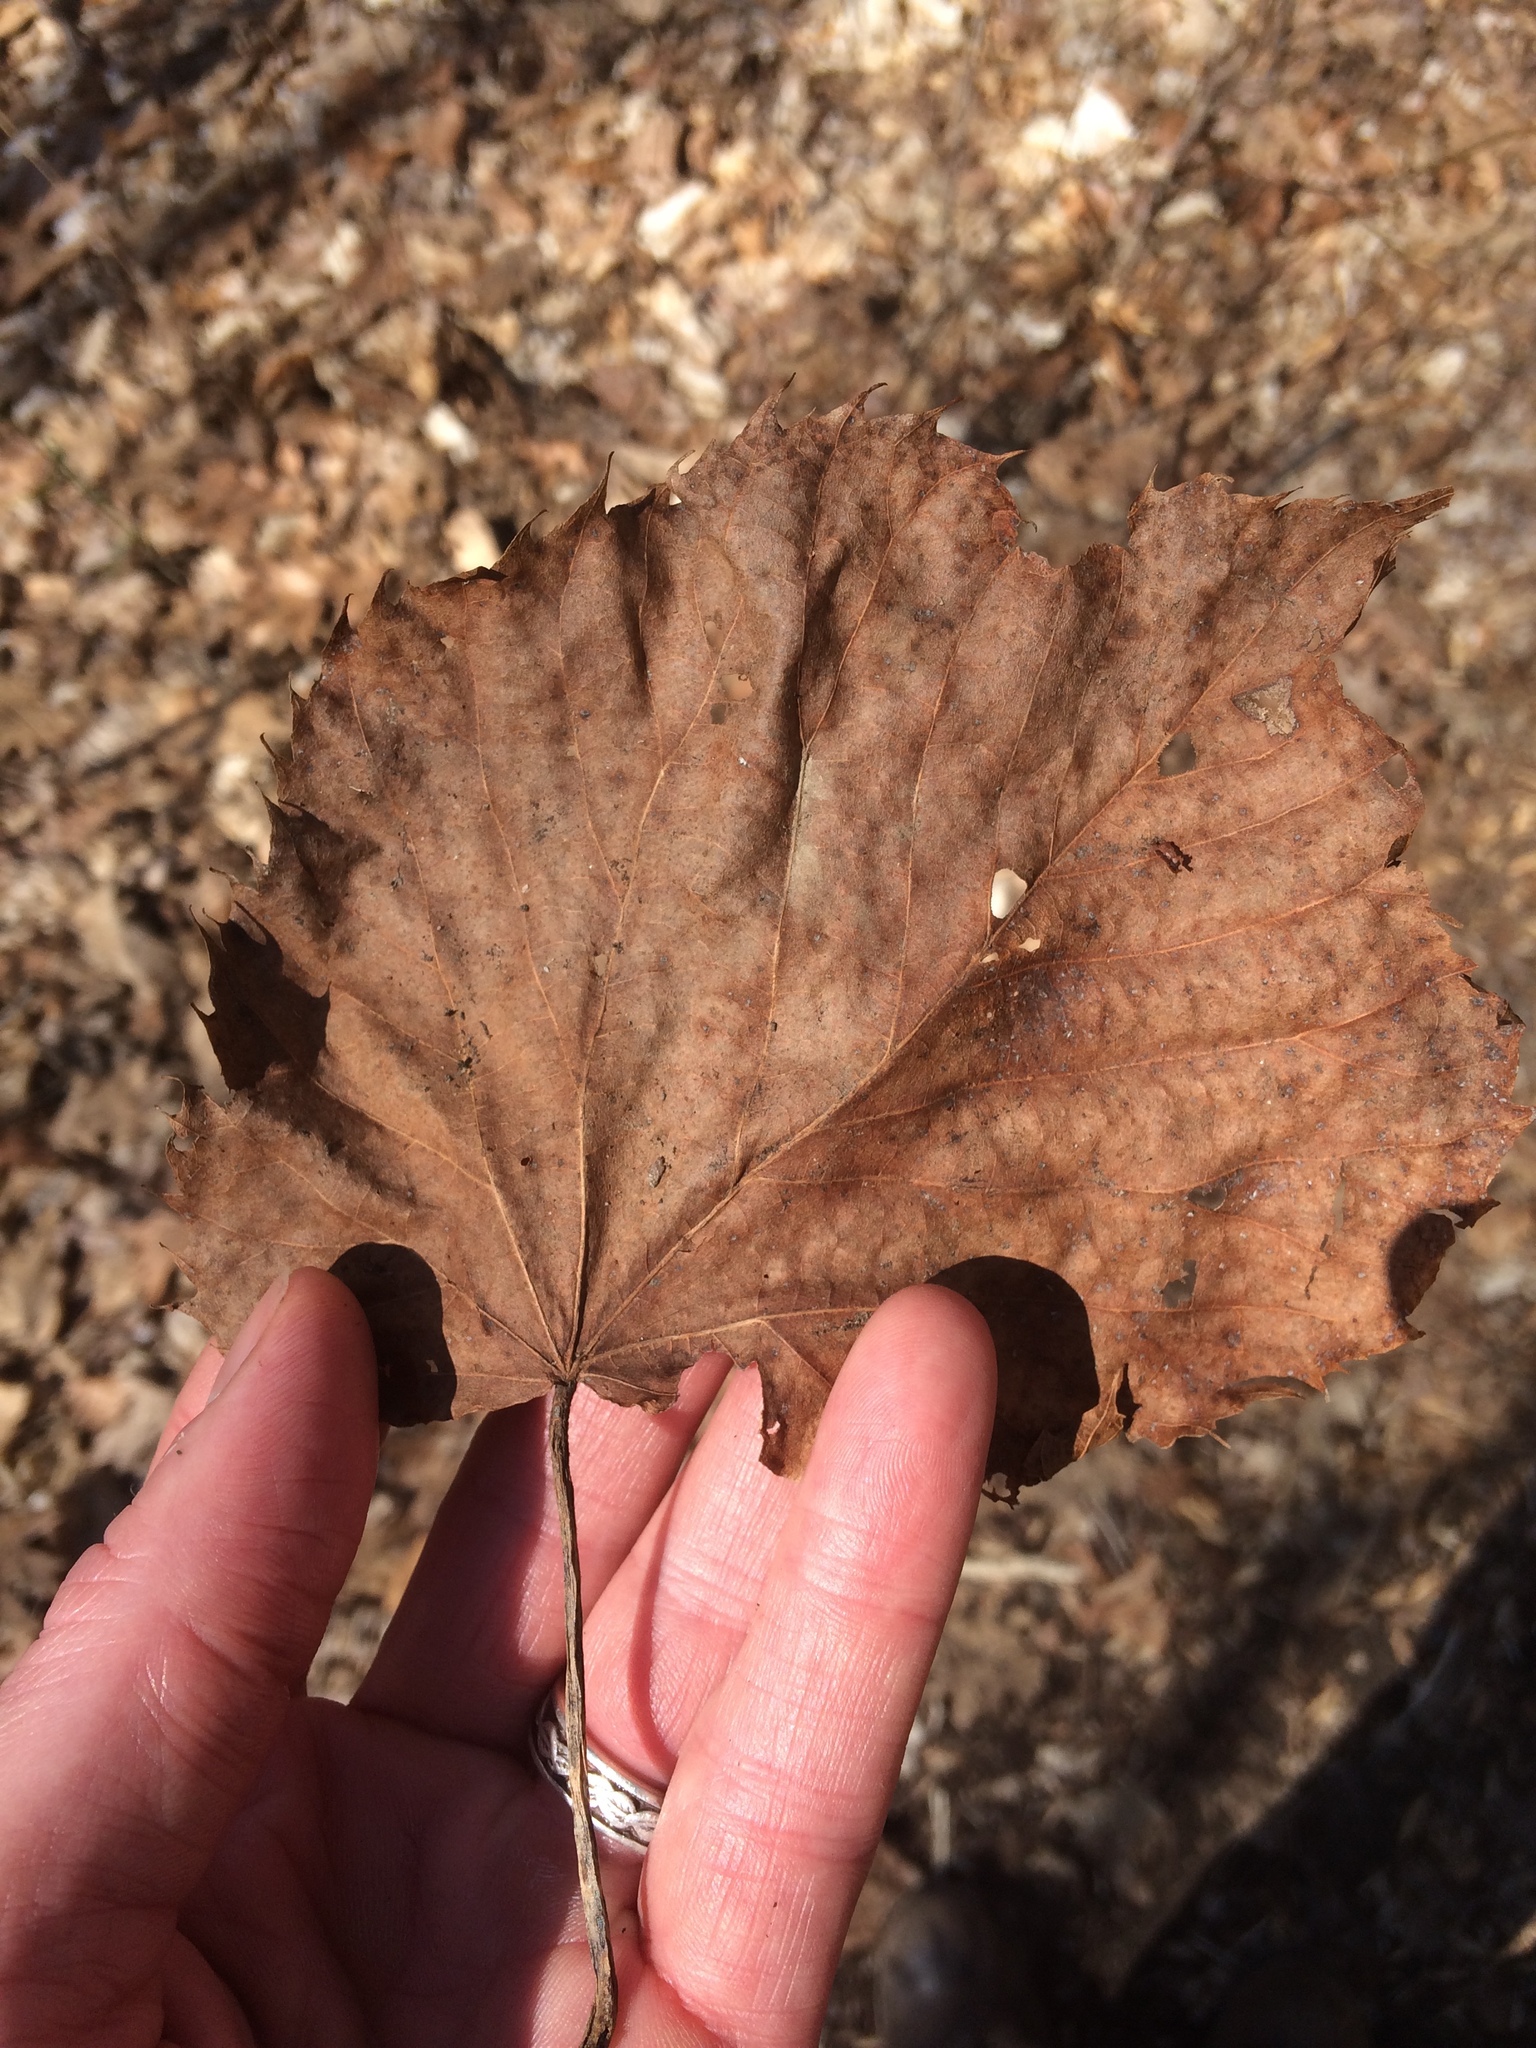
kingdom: Plantae
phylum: Tracheophyta
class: Magnoliopsida
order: Malvales
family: Malvaceae
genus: Tilia
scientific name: Tilia americana
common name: Basswood
